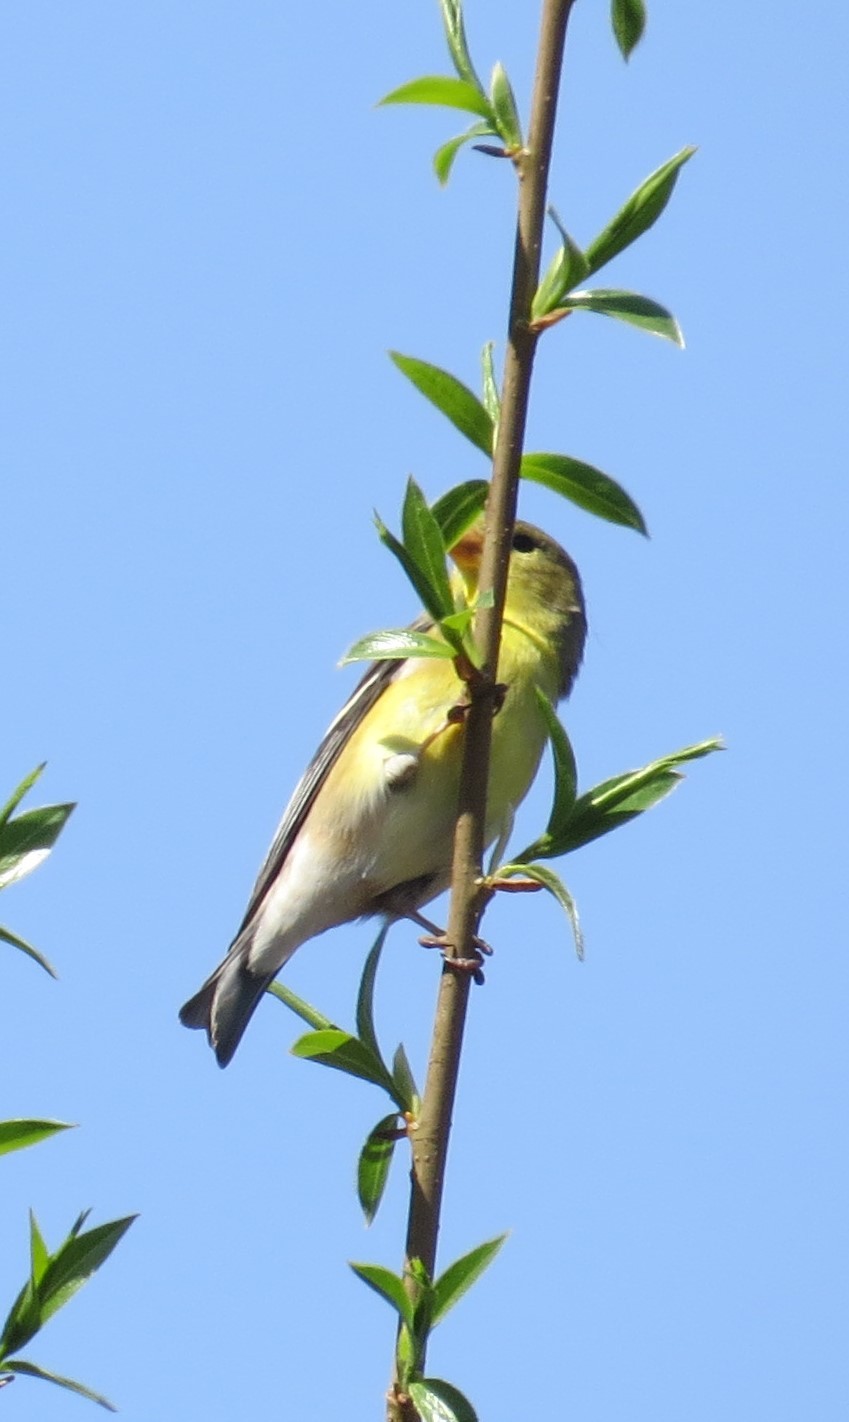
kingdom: Animalia
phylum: Chordata
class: Aves
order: Passeriformes
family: Fringillidae
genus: Spinus
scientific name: Spinus tristis
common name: American goldfinch
